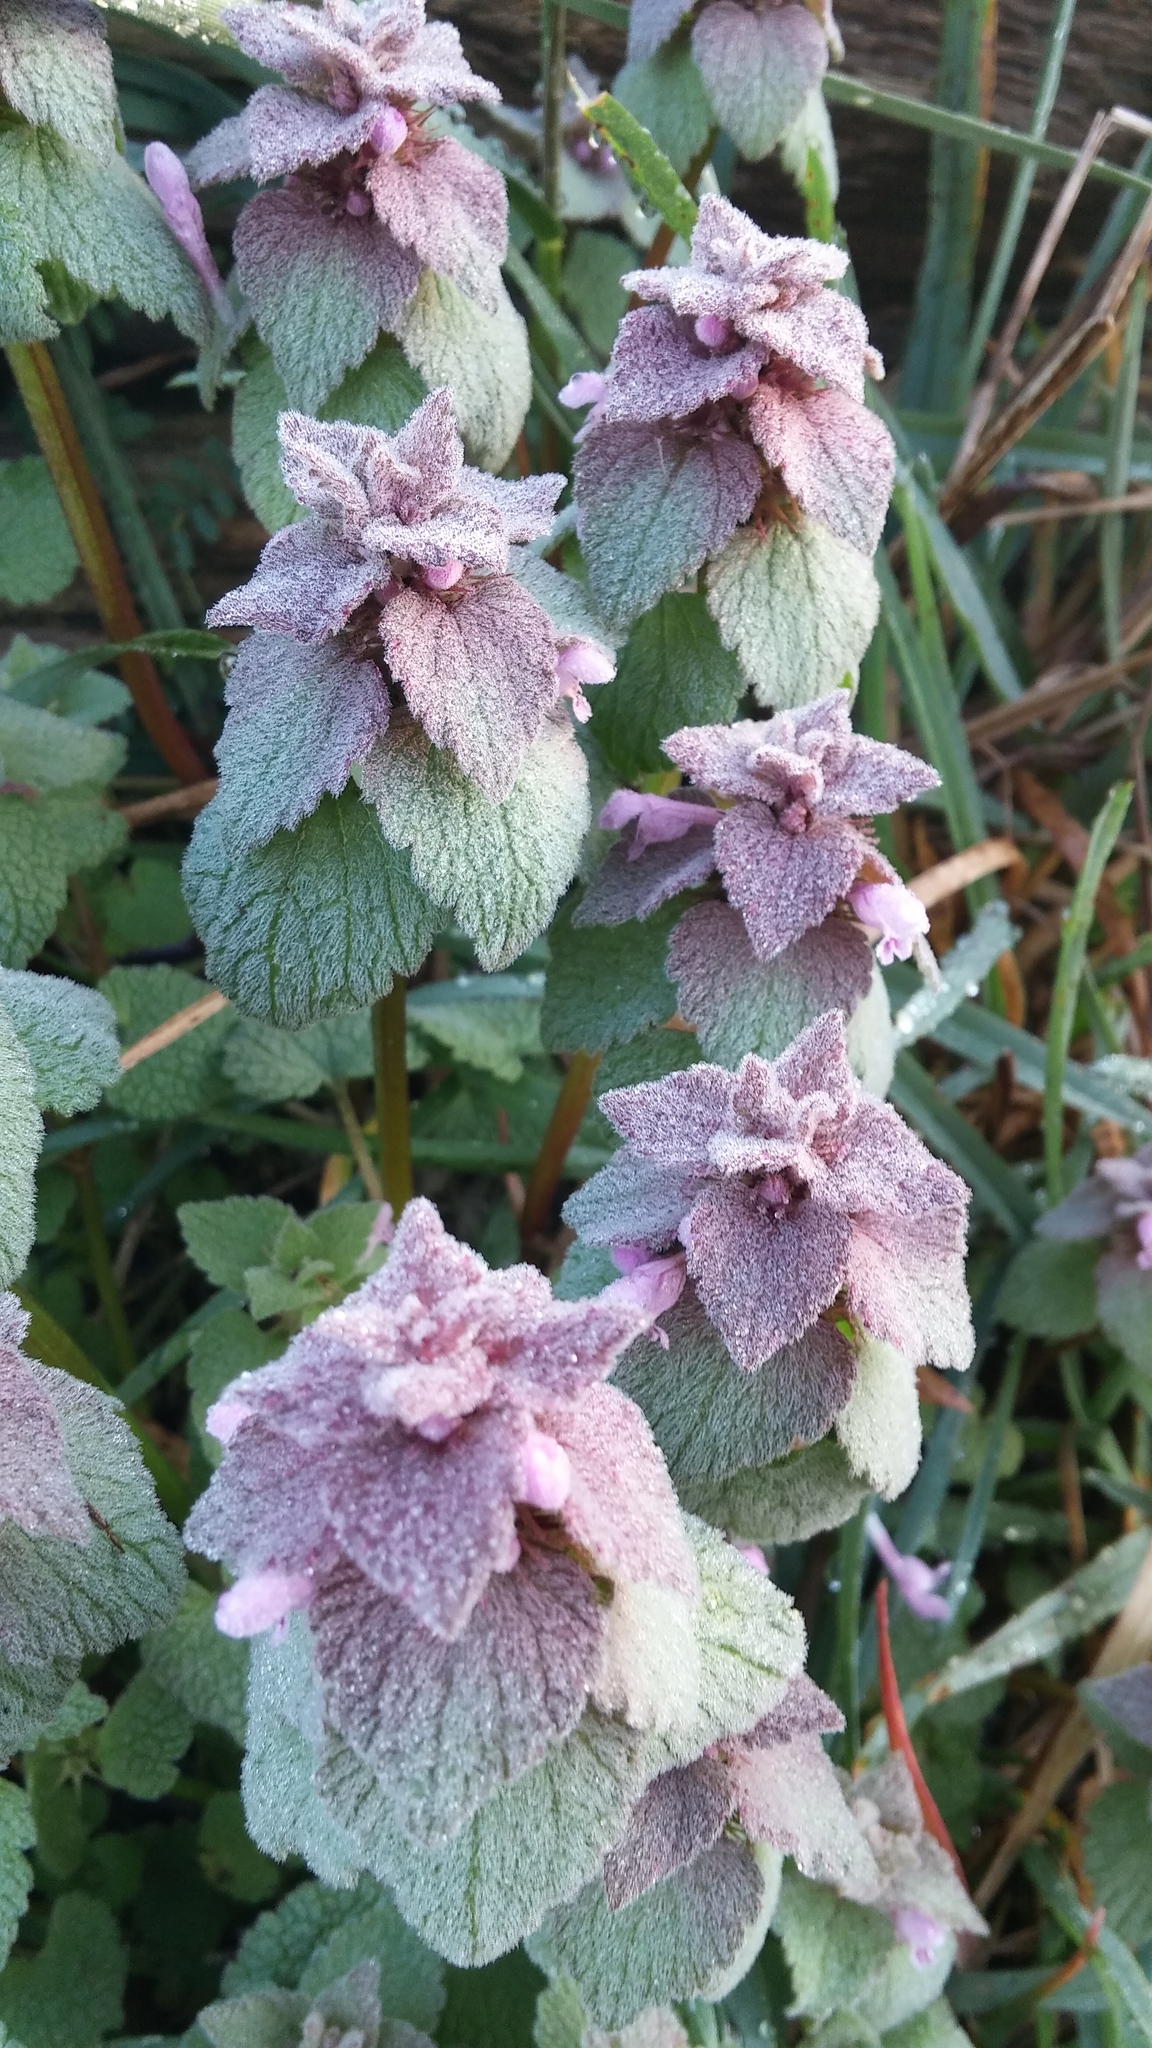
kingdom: Plantae
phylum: Tracheophyta
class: Magnoliopsida
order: Lamiales
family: Lamiaceae
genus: Lamium
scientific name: Lamium purpureum
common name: Red dead-nettle
